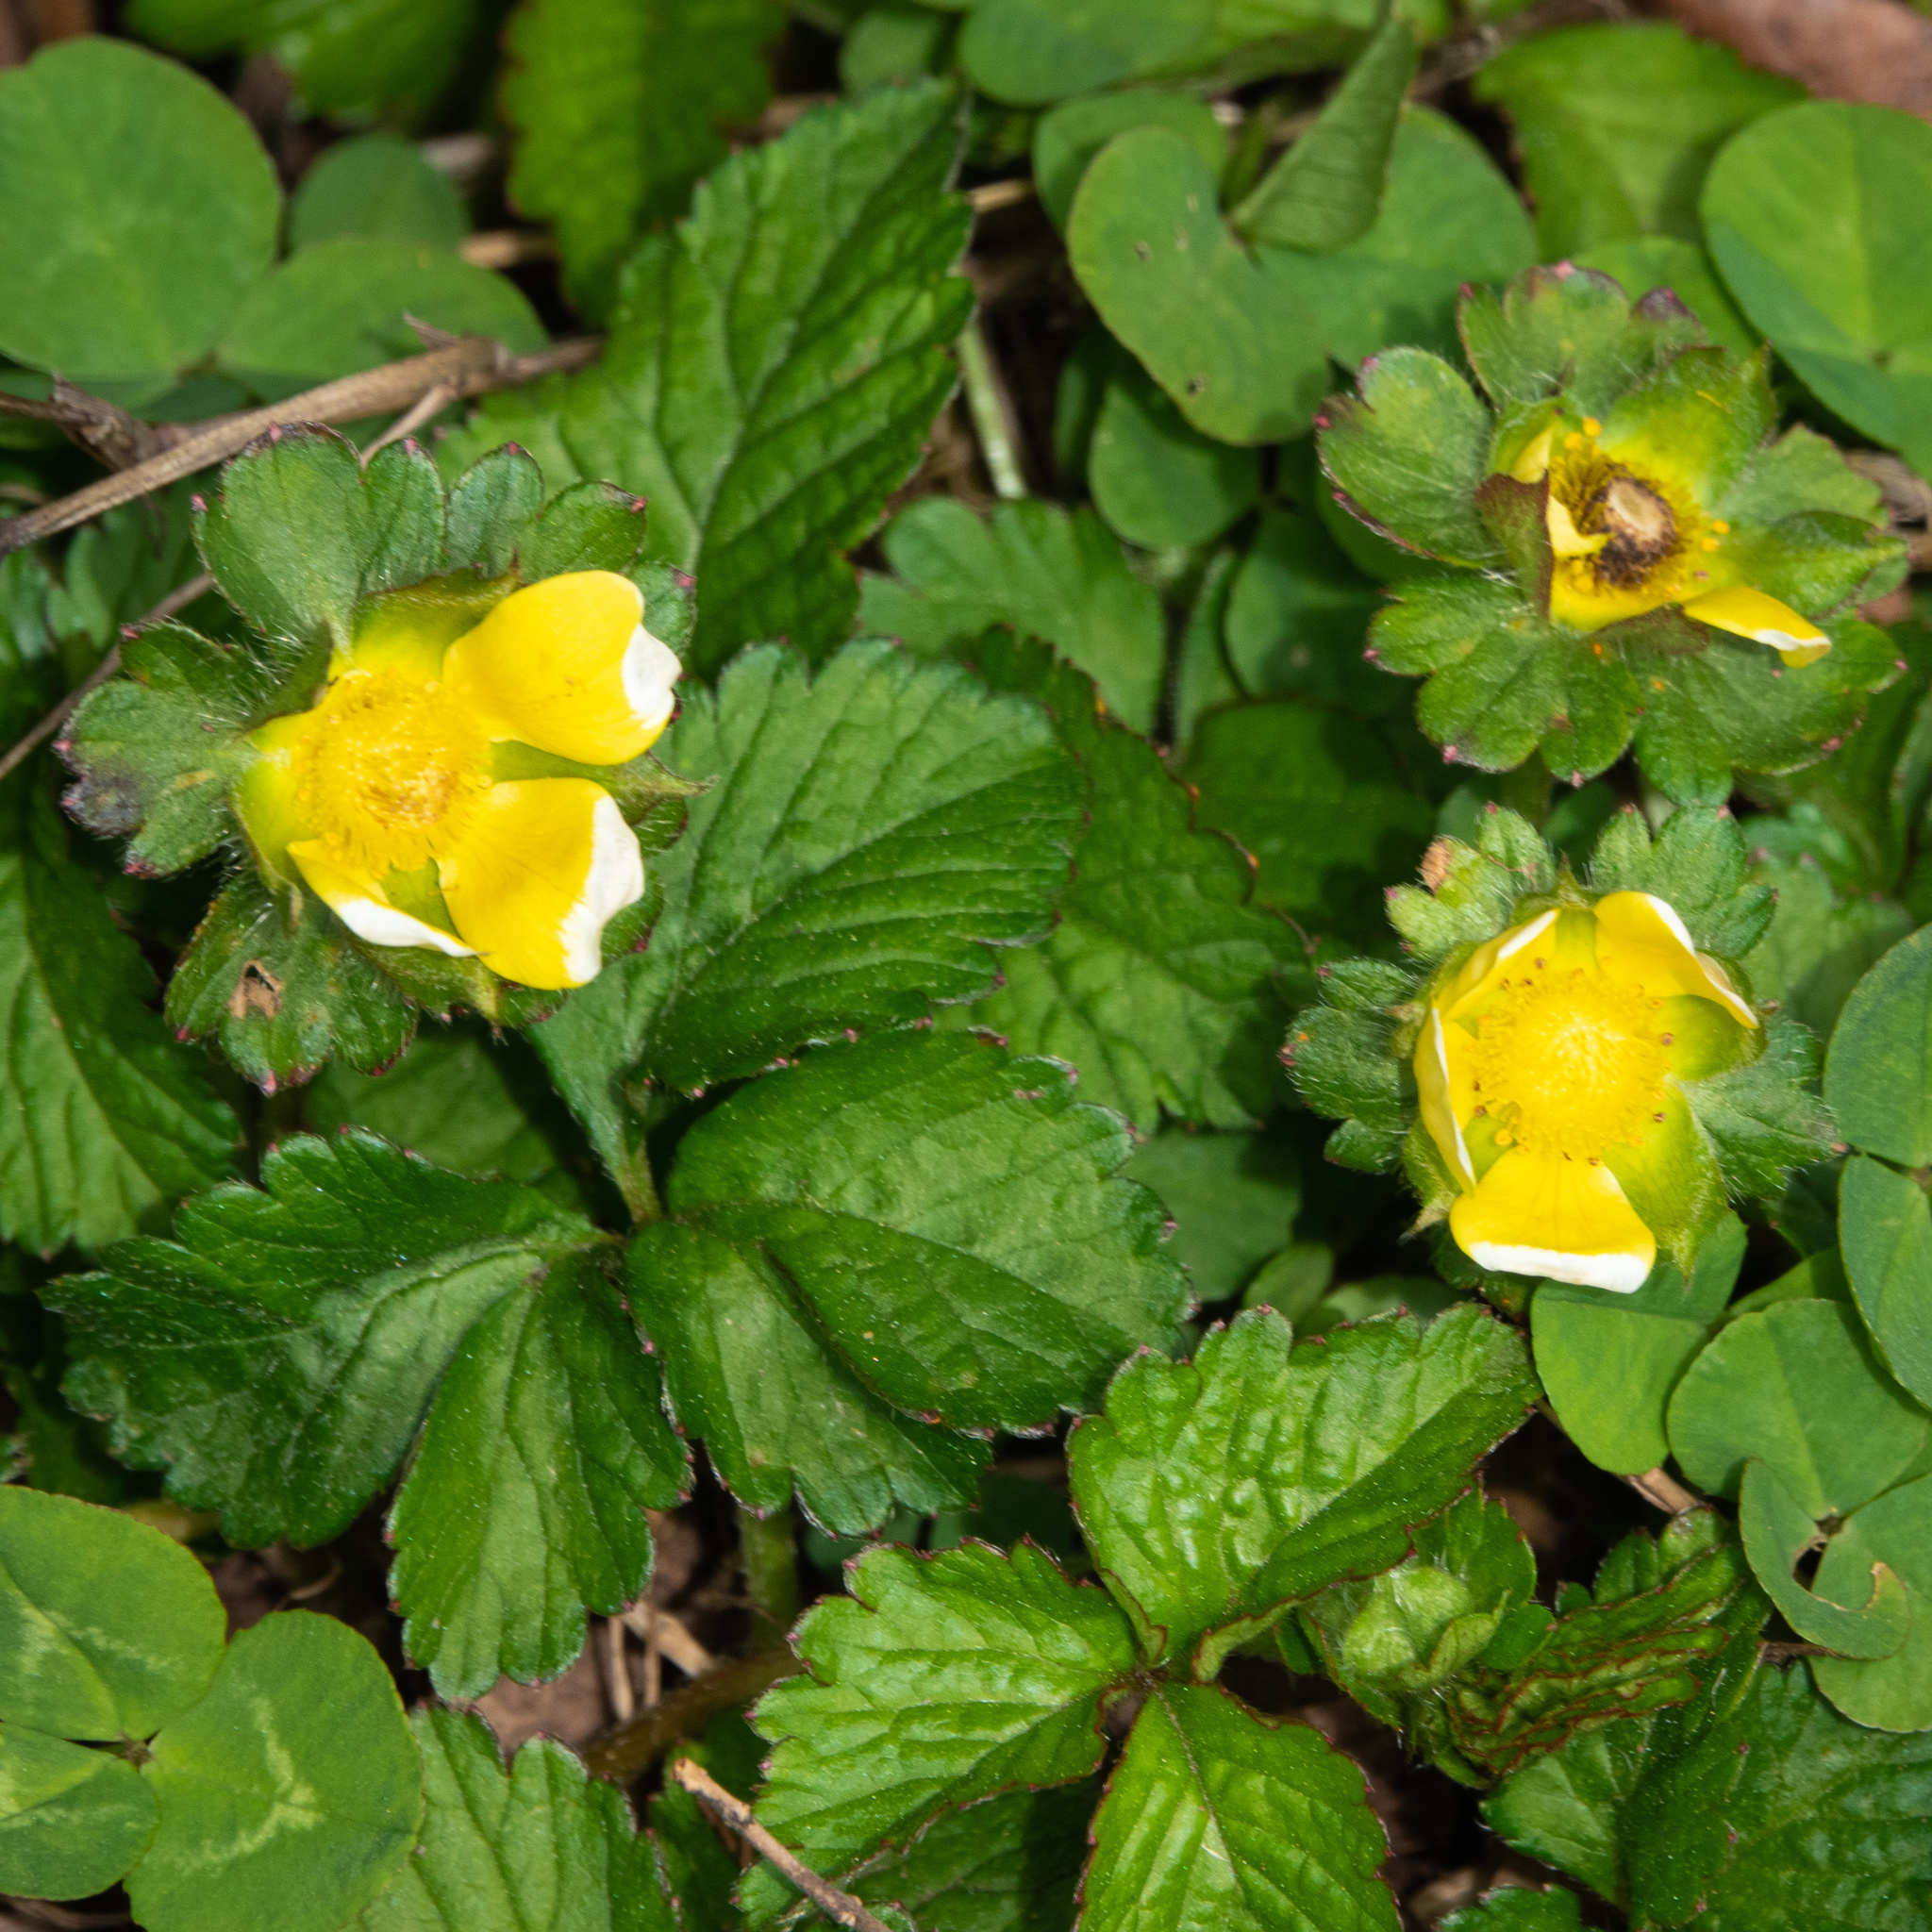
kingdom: Plantae
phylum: Tracheophyta
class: Magnoliopsida
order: Rosales
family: Rosaceae
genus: Potentilla
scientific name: Potentilla indica
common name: Yellow-flowered strawberry
